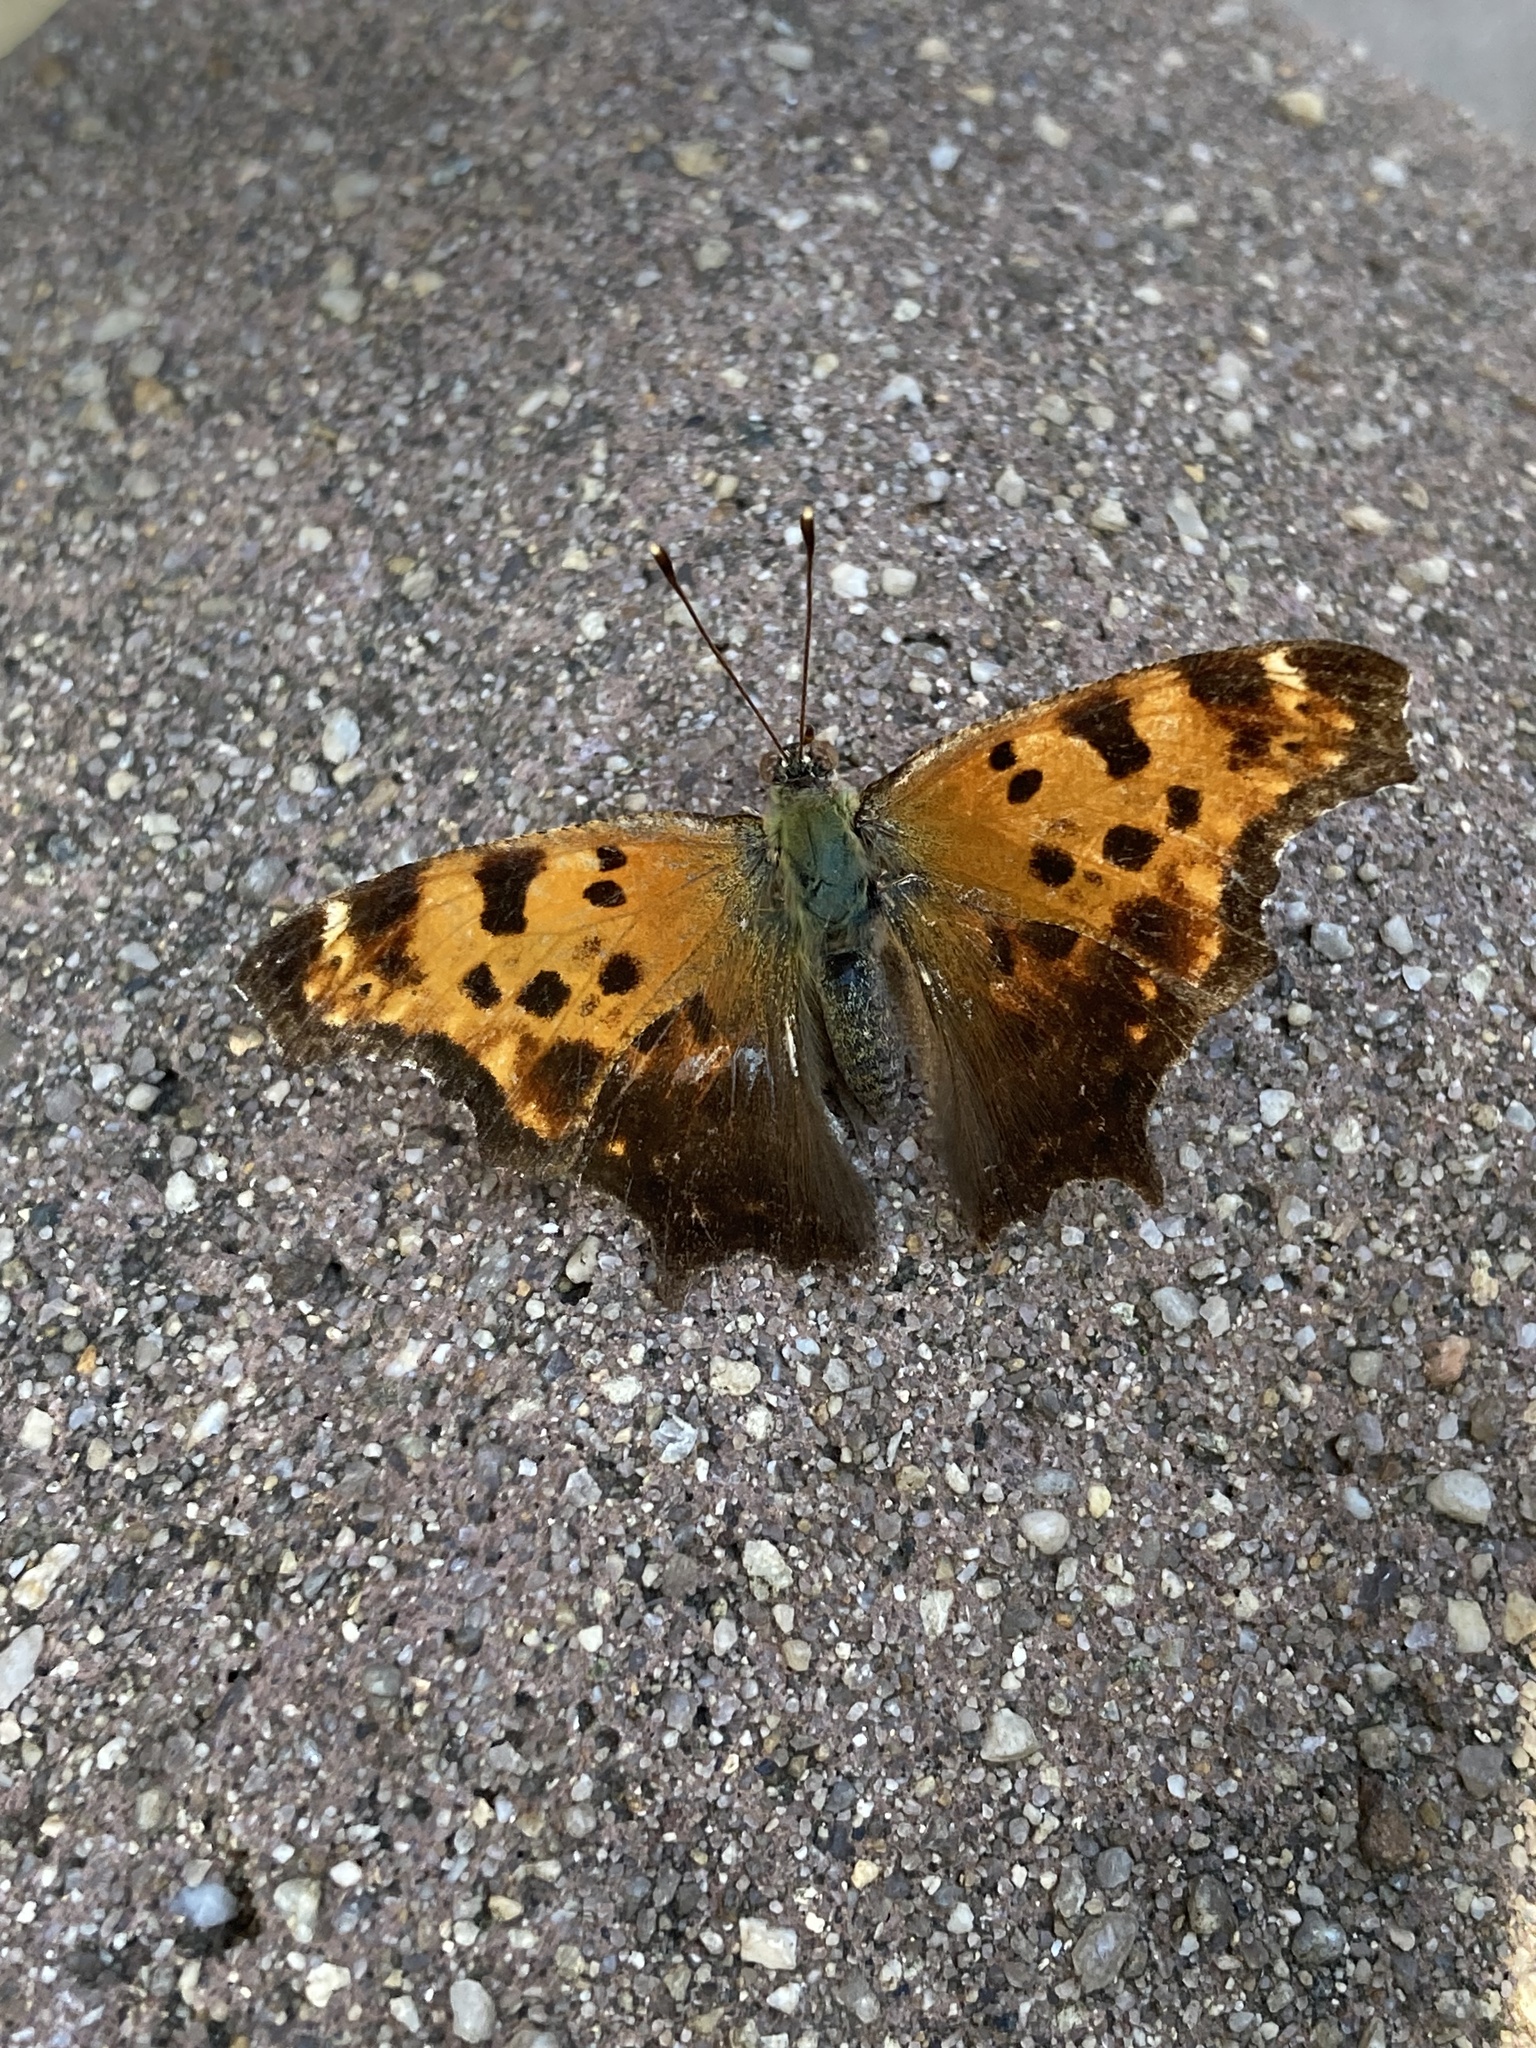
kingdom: Animalia
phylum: Arthropoda
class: Insecta
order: Lepidoptera
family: Nymphalidae
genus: Polygonia
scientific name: Polygonia comma
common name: Eastern comma
